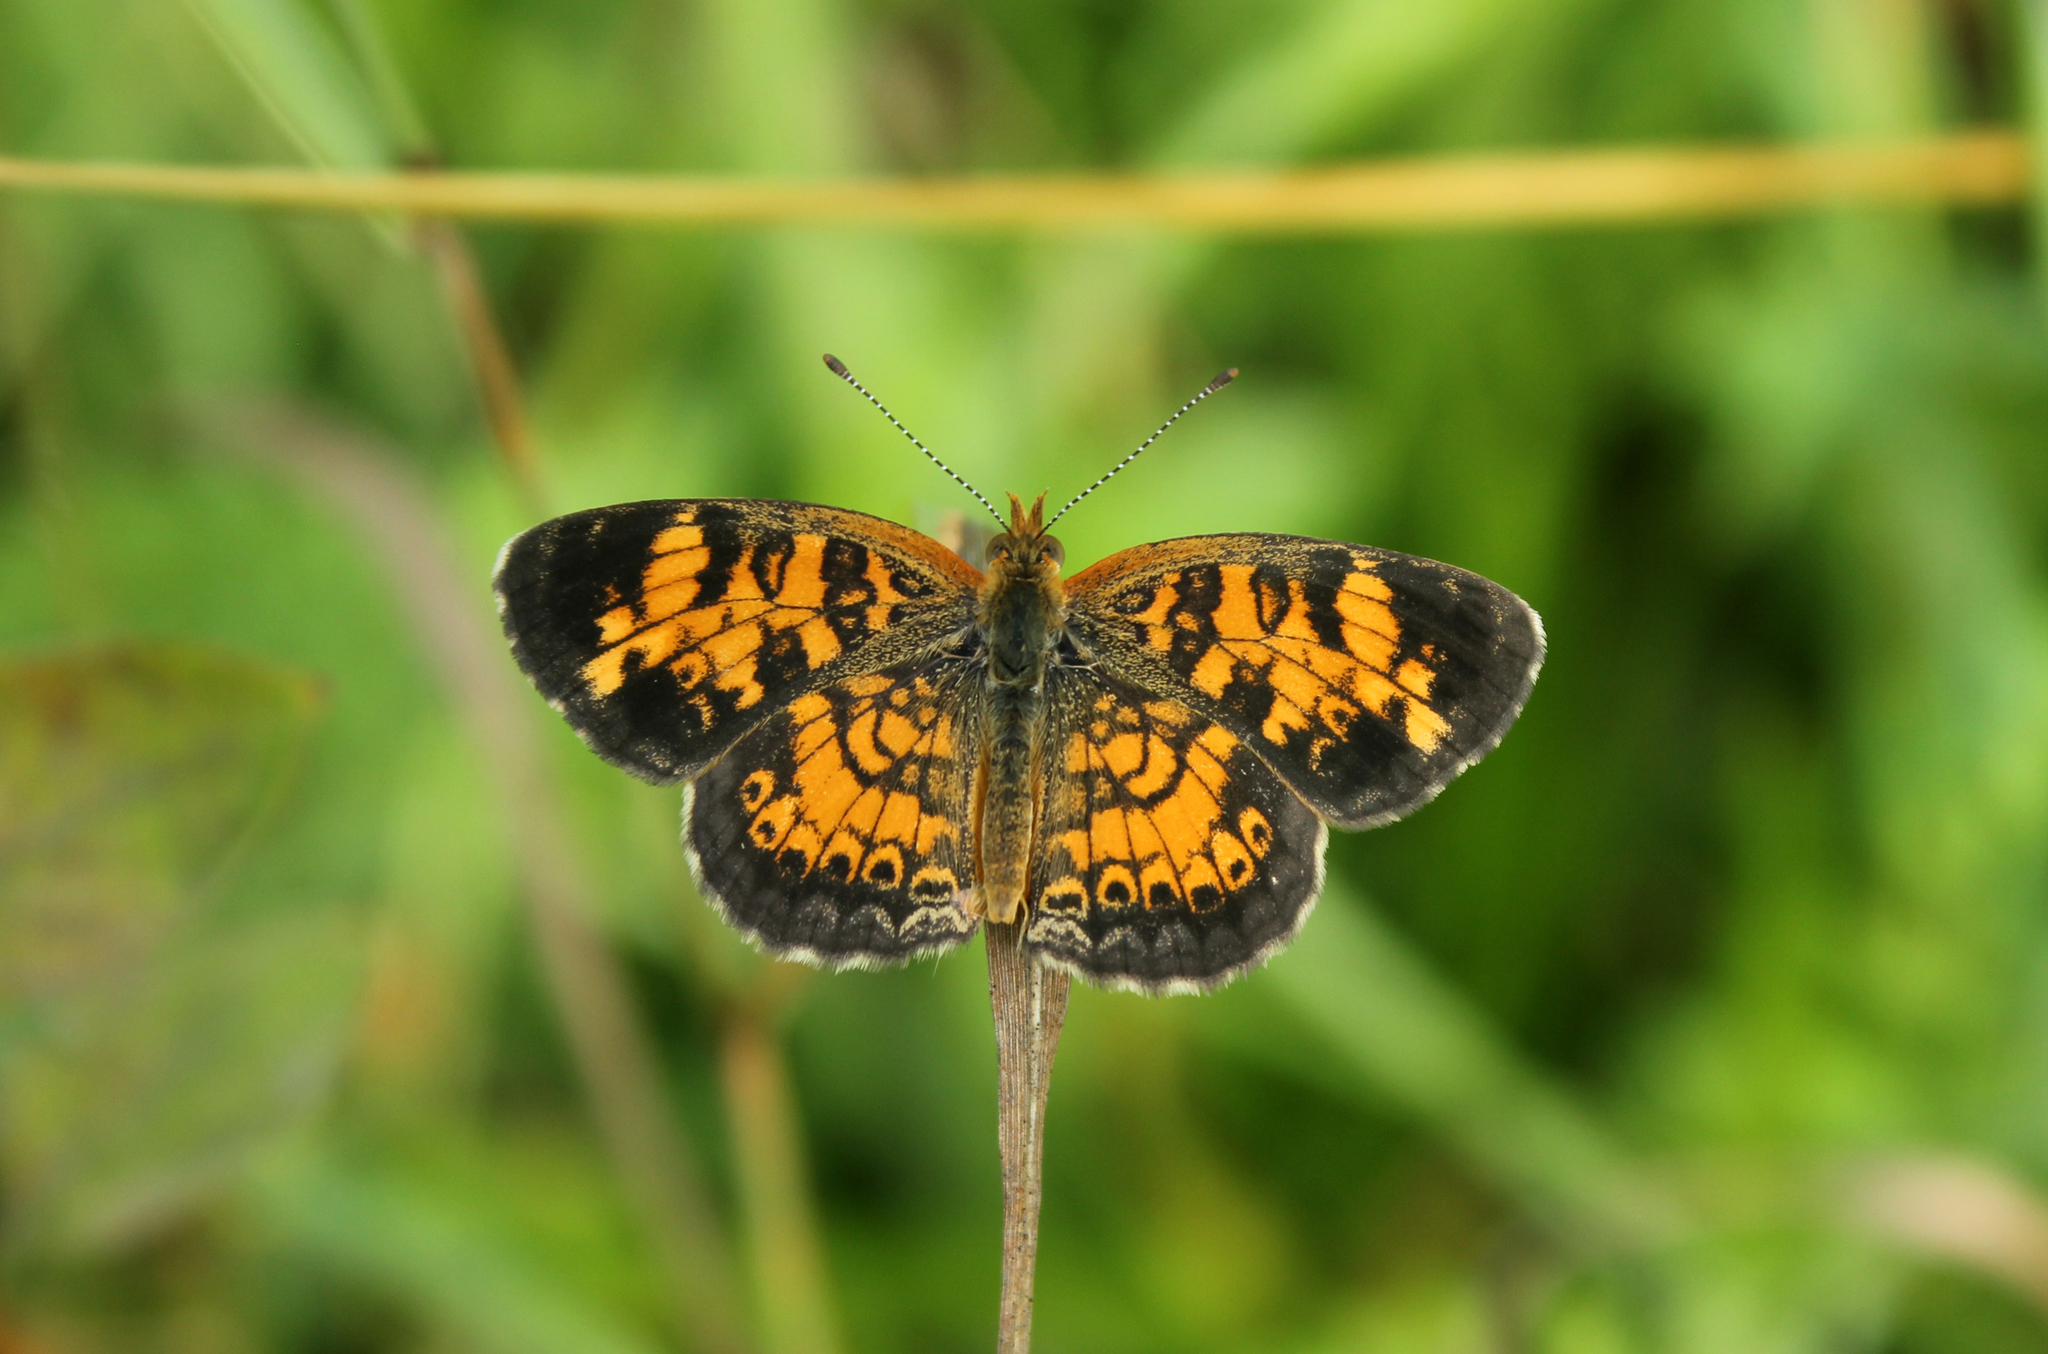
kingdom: Animalia
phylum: Arthropoda
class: Insecta
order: Lepidoptera
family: Nymphalidae
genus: Phyciodes
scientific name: Phyciodes tharos
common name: Pearl crescent
